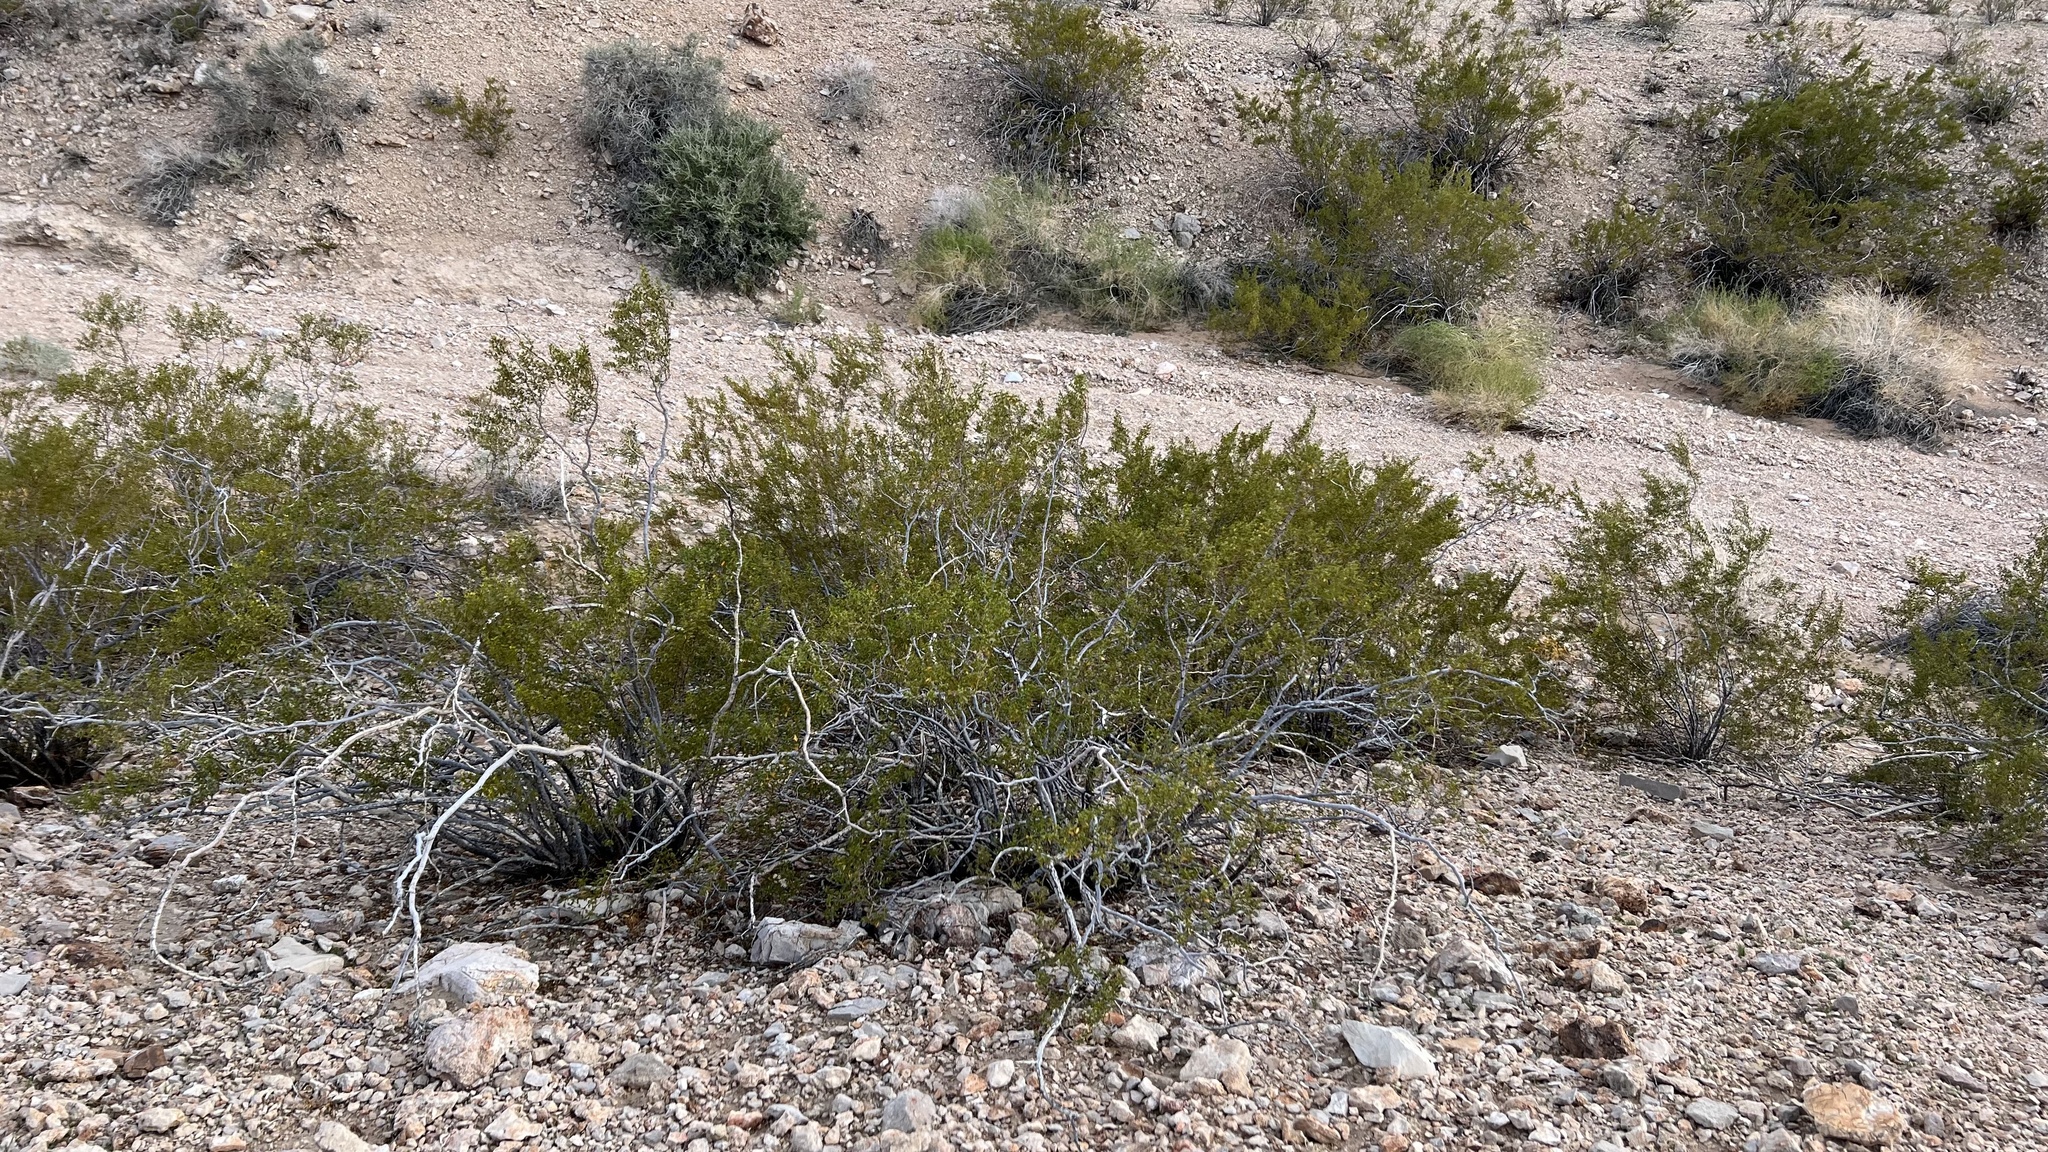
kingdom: Plantae
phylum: Tracheophyta
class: Magnoliopsida
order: Zygophyllales
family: Zygophyllaceae
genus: Larrea
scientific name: Larrea tridentata
